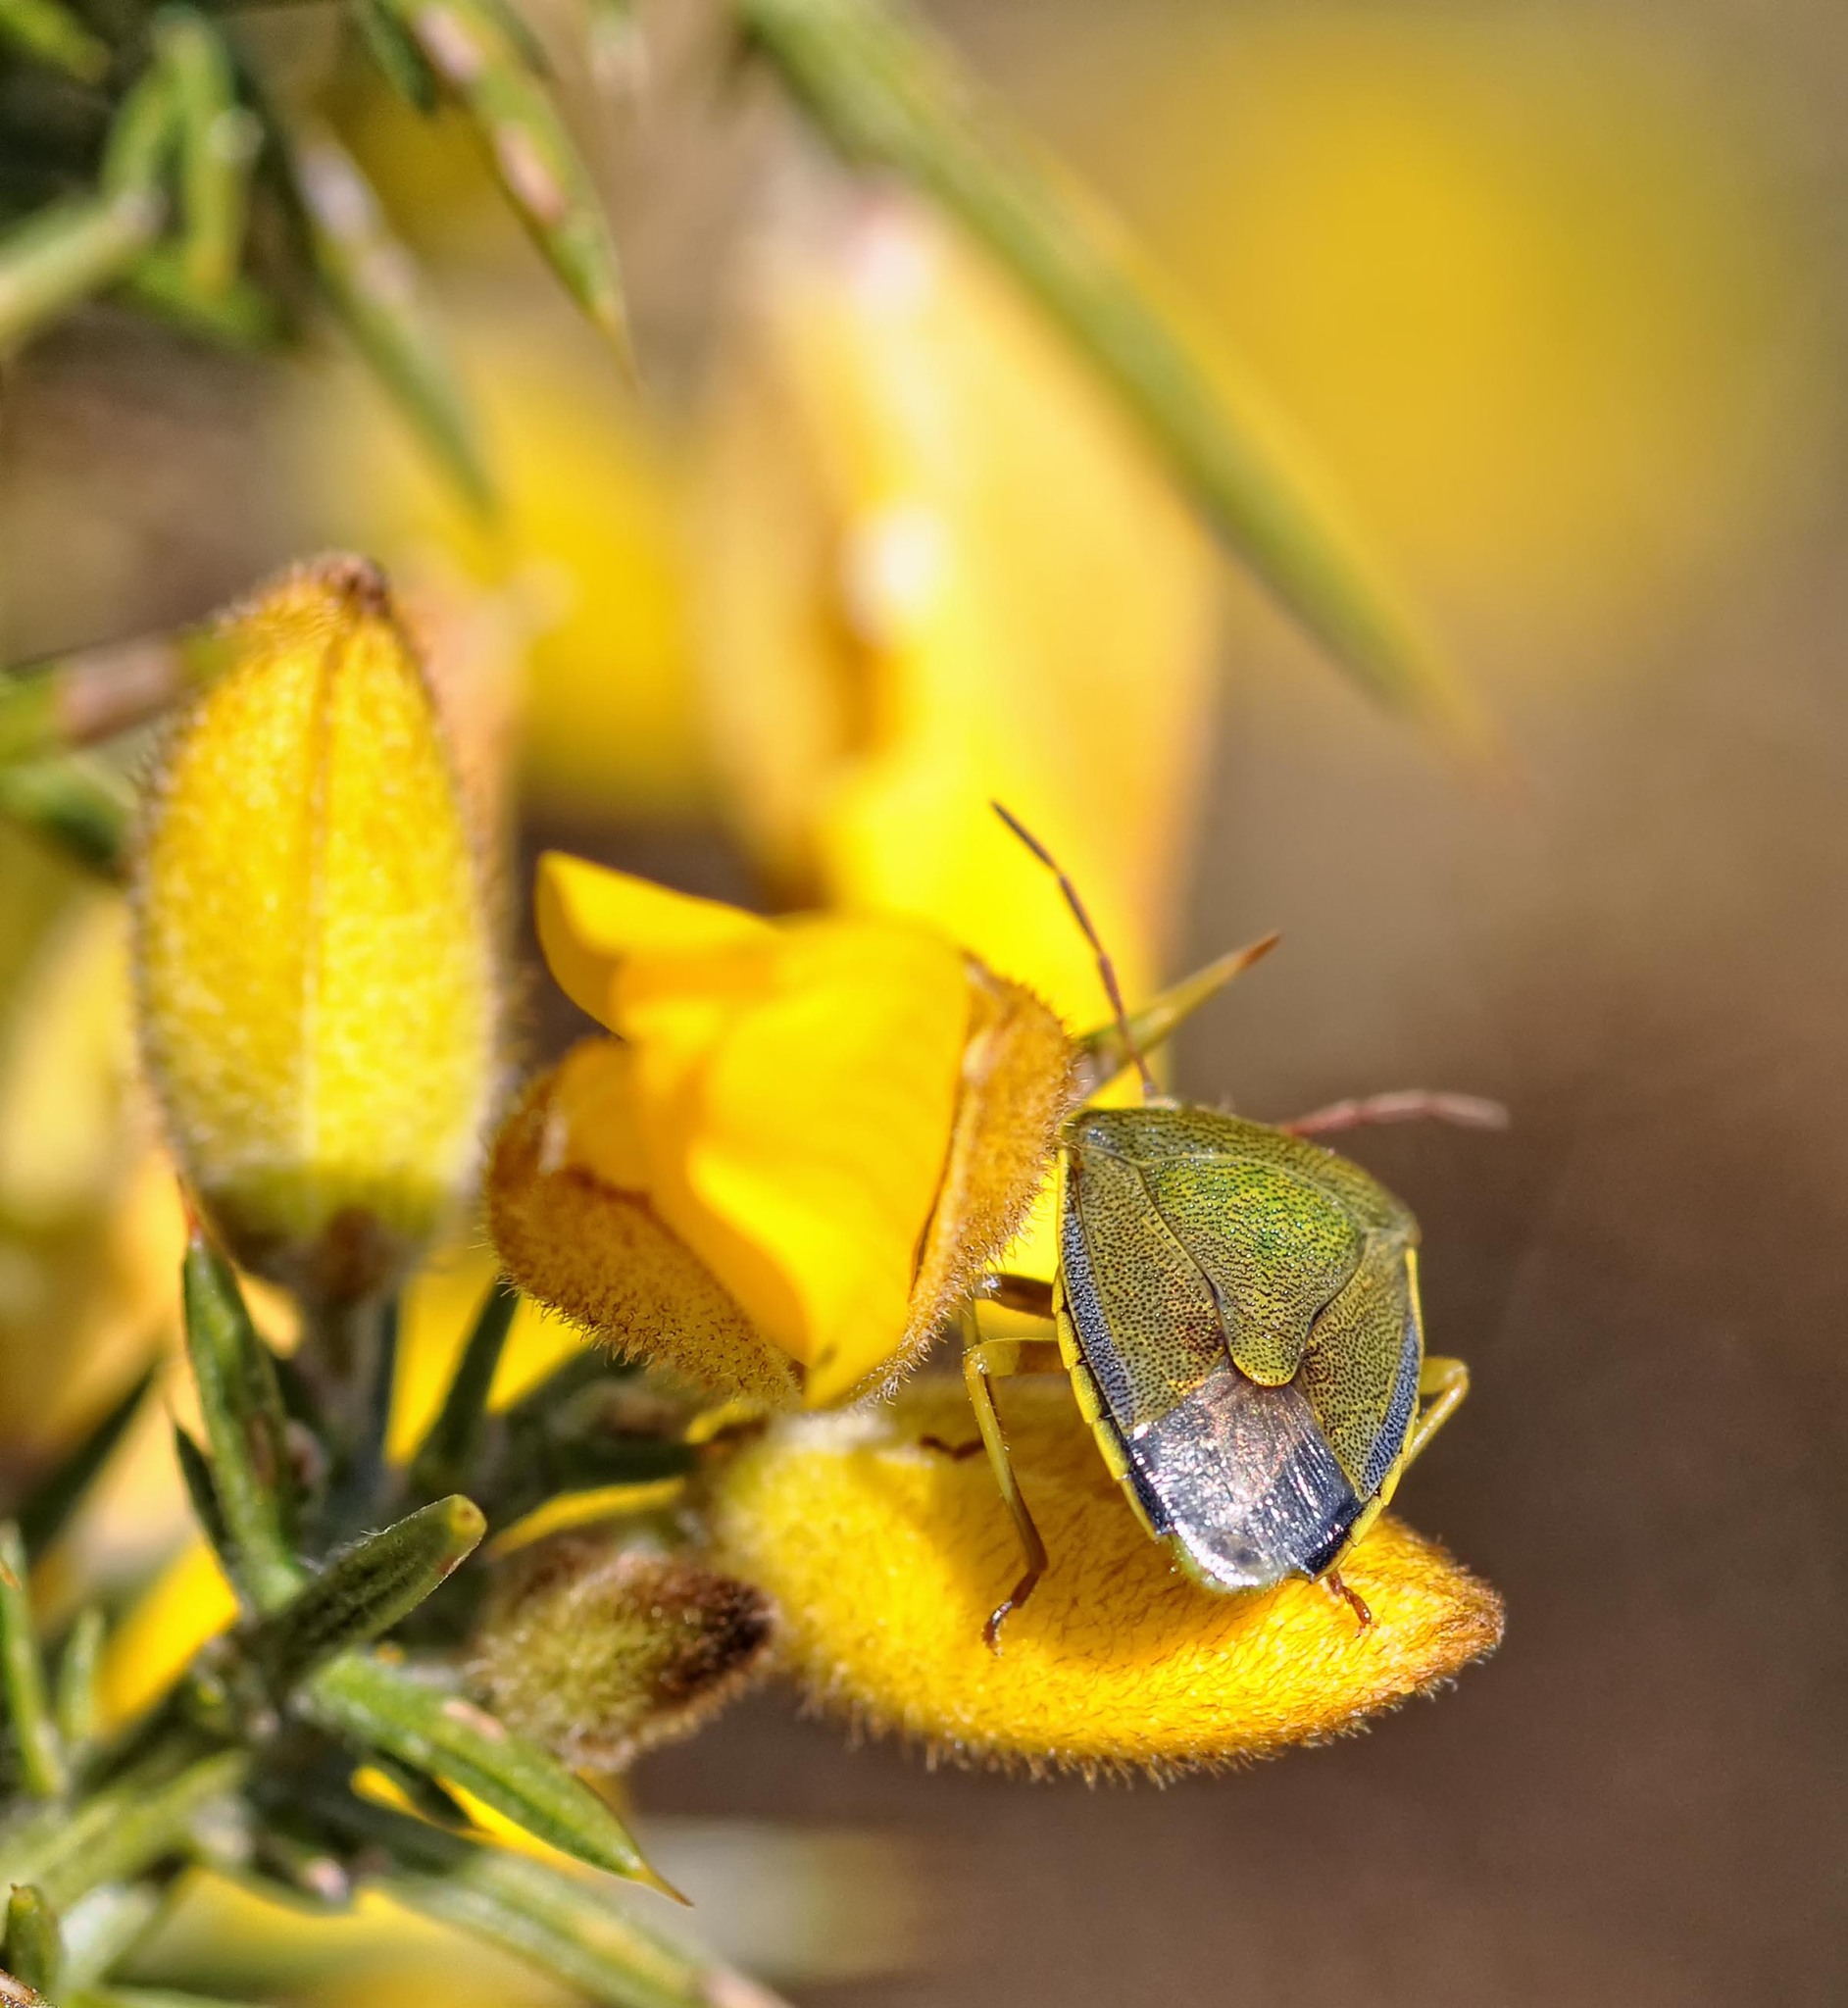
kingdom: Animalia
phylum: Arthropoda
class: Insecta
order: Hemiptera
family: Pentatomidae
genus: Piezodorus
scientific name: Piezodorus lituratus
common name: Stink bug
